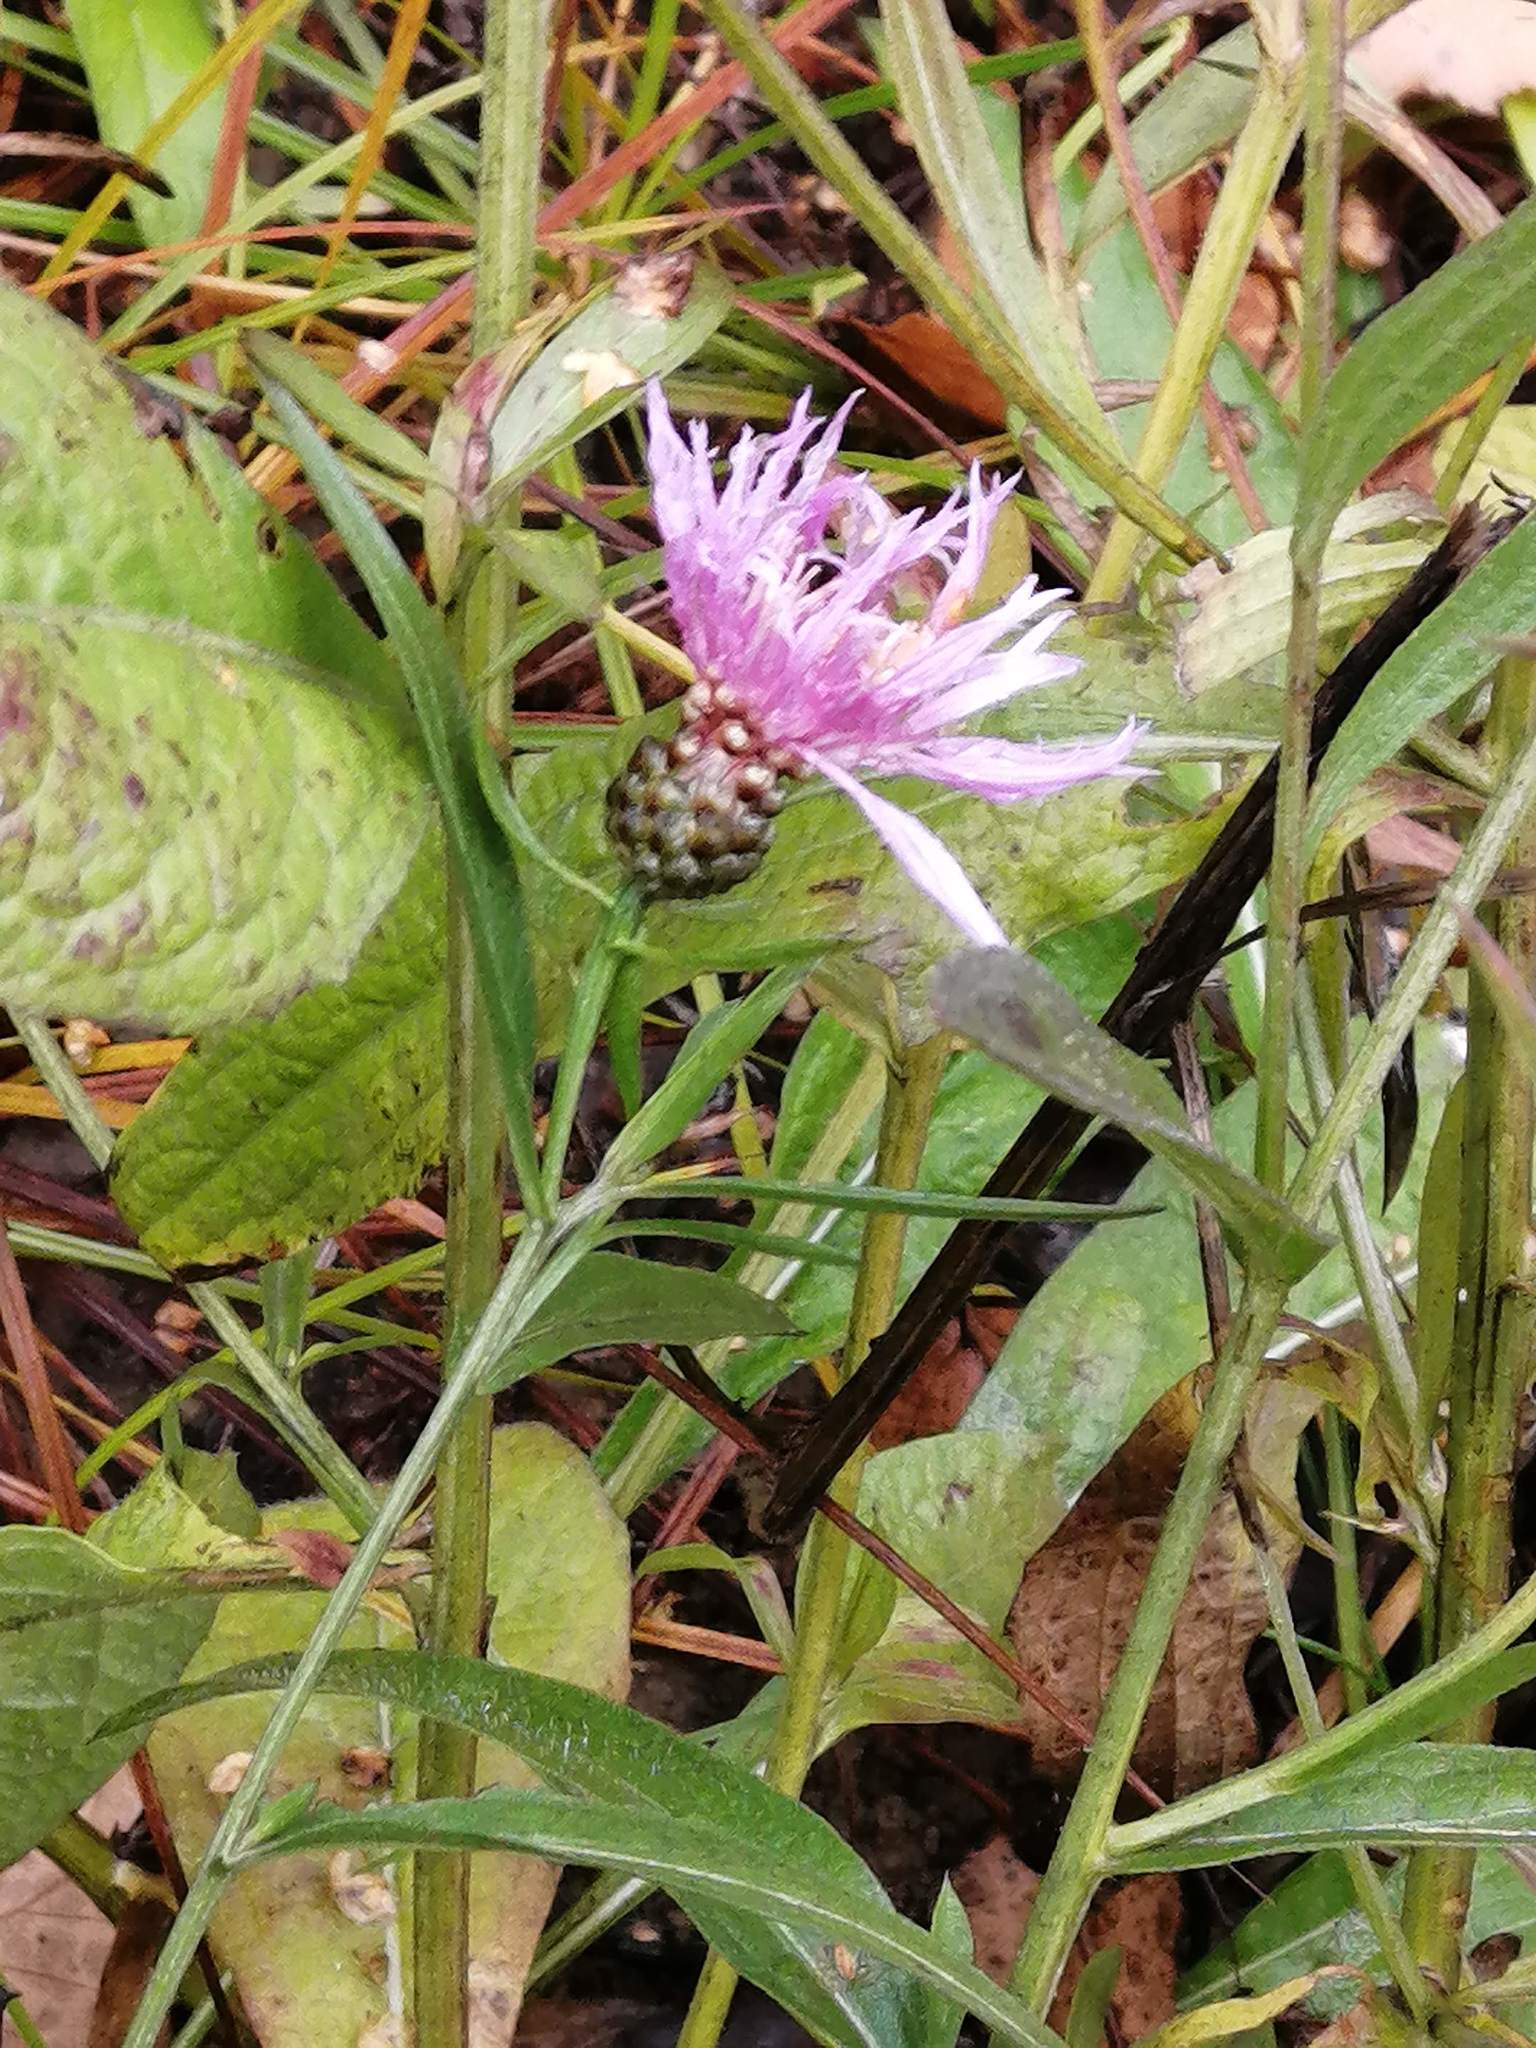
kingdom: Plantae
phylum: Tracheophyta
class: Magnoliopsida
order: Asterales
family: Asteraceae
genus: Centaurea
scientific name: Centaurea jacea
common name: Brown knapweed
